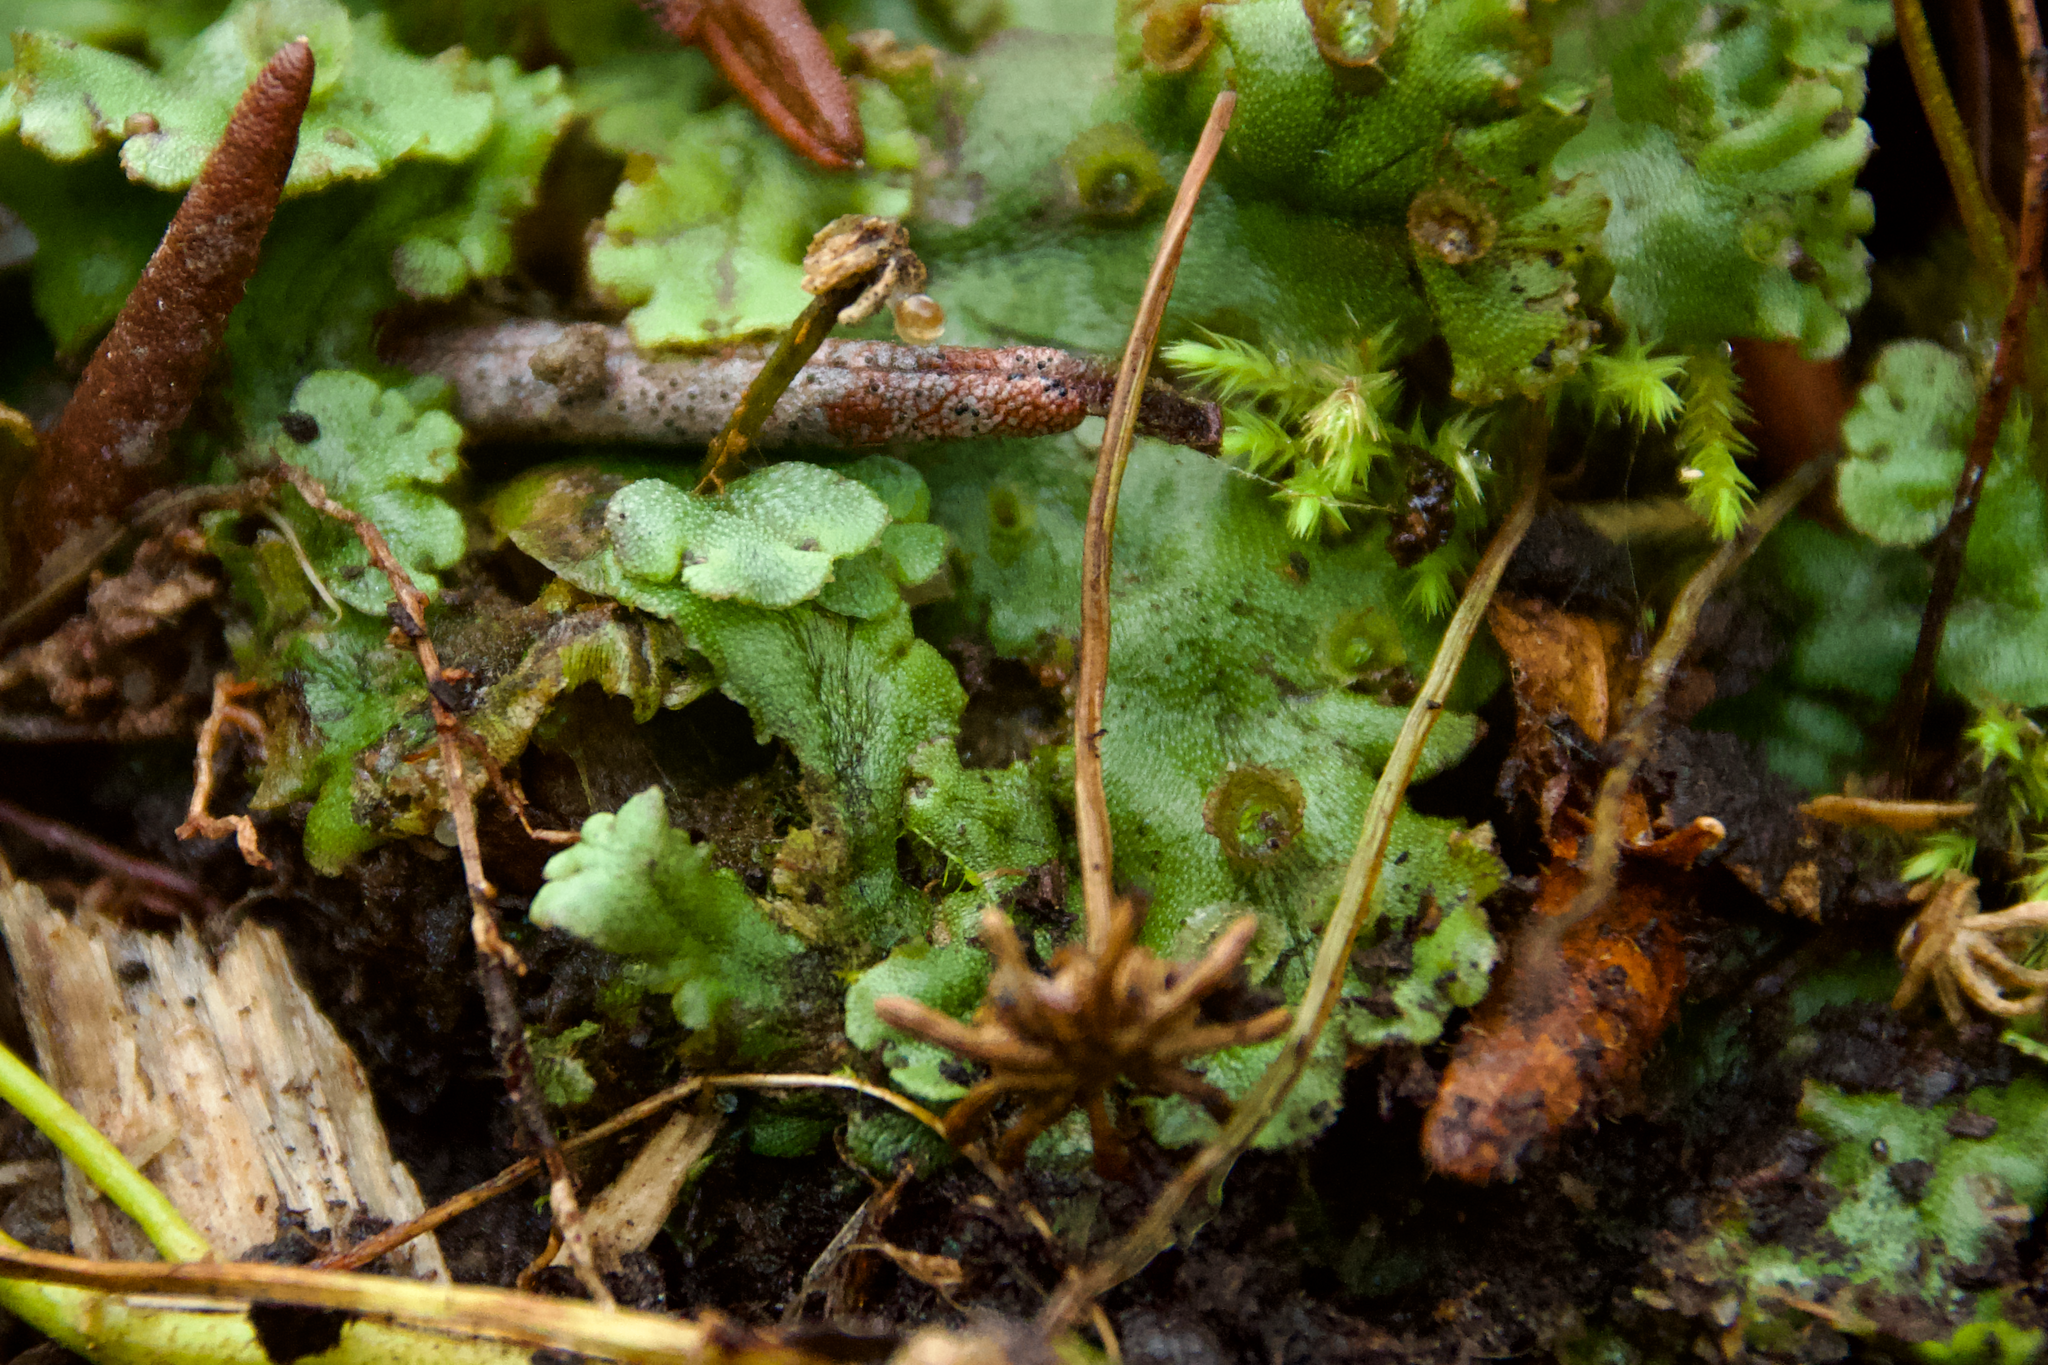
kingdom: Plantae
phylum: Marchantiophyta
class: Marchantiopsida
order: Marchantiales
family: Marchantiaceae
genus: Marchantia
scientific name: Marchantia polymorpha
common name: Common liverwort
